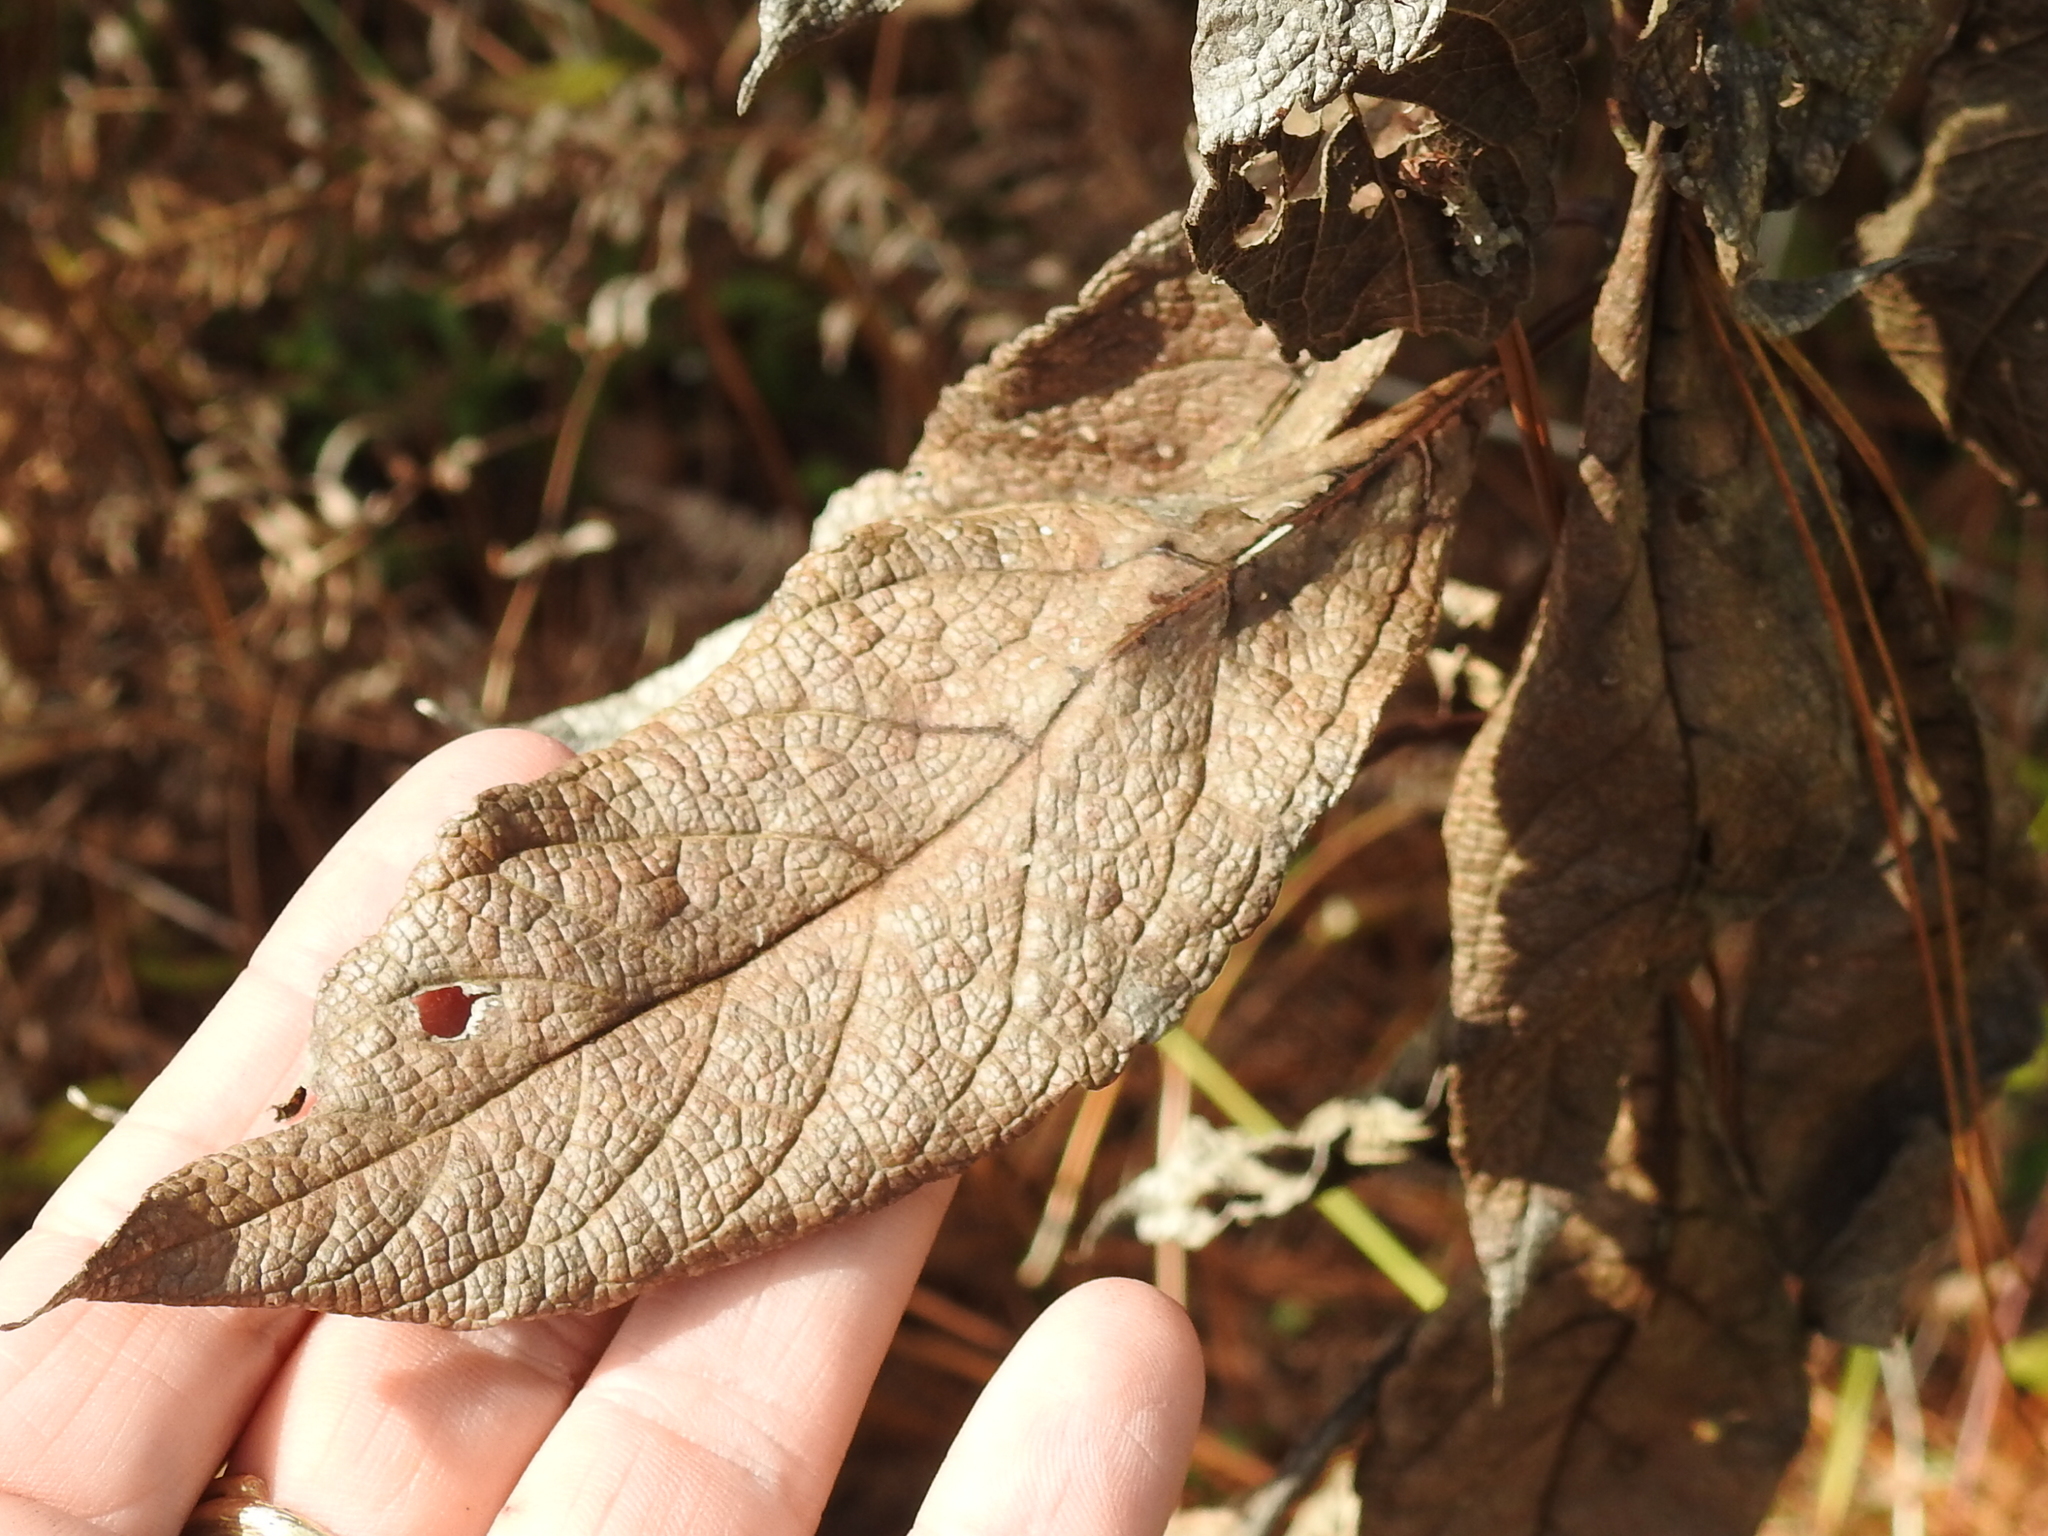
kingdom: Plantae
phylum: Tracheophyta
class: Magnoliopsida
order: Asterales
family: Asteraceae
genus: Eutrochium
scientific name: Eutrochium fistulosum
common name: Trumpetweed
